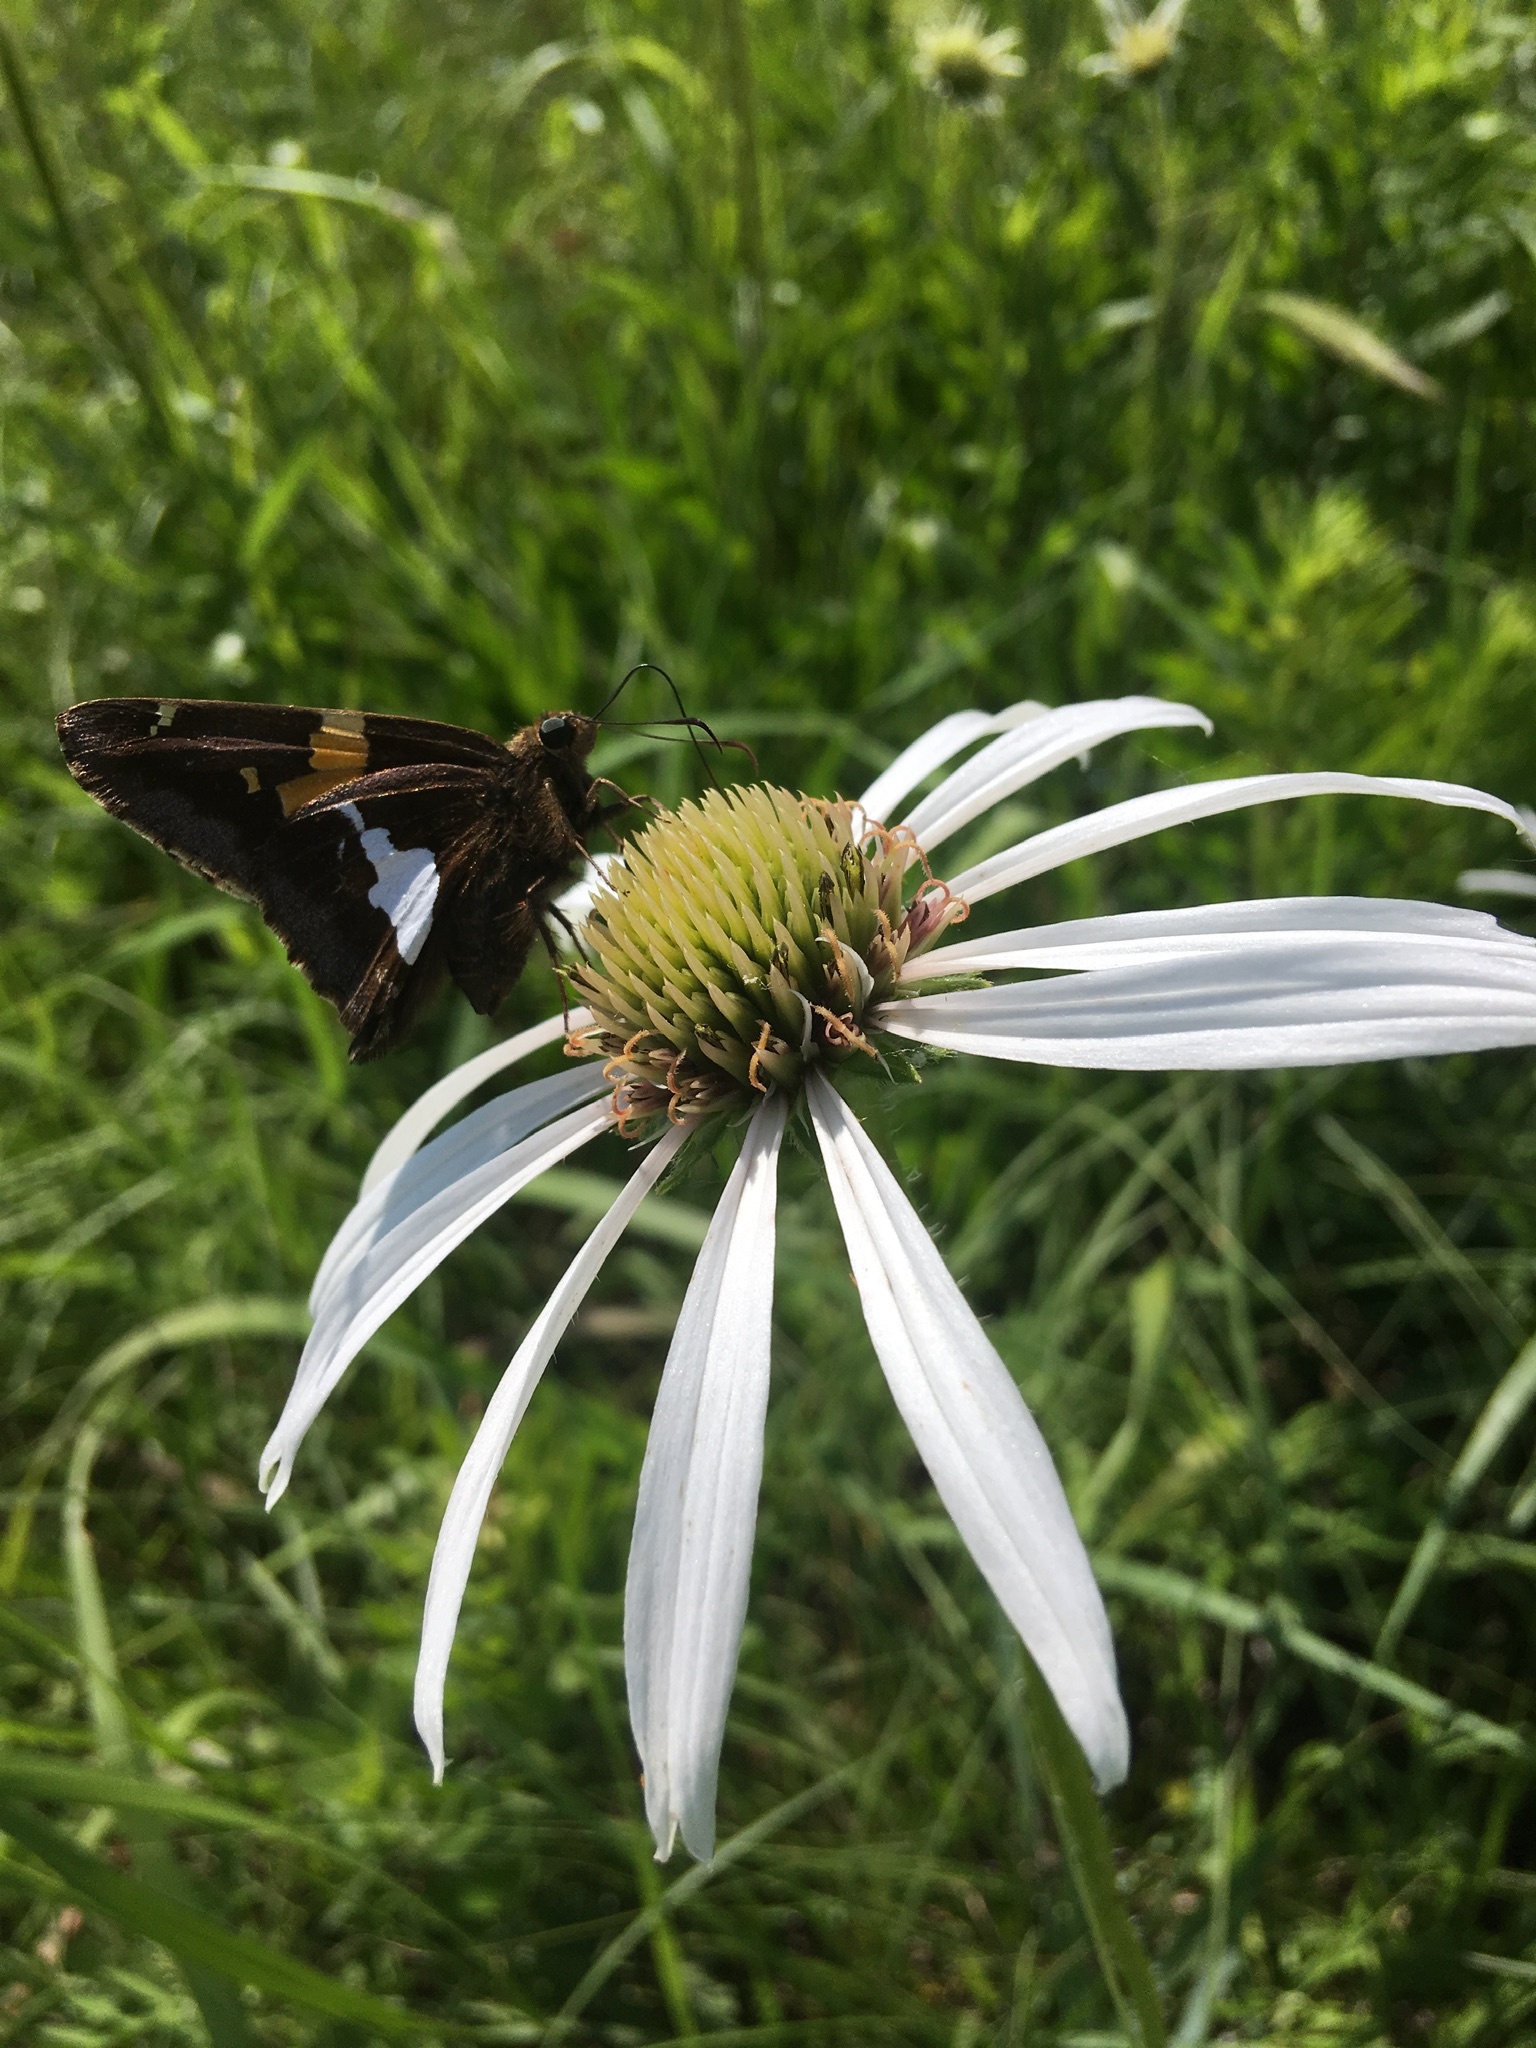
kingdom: Animalia
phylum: Arthropoda
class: Insecta
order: Lepidoptera
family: Hesperiidae
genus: Epargyreus
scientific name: Epargyreus clarus
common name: Silver-spotted skipper
